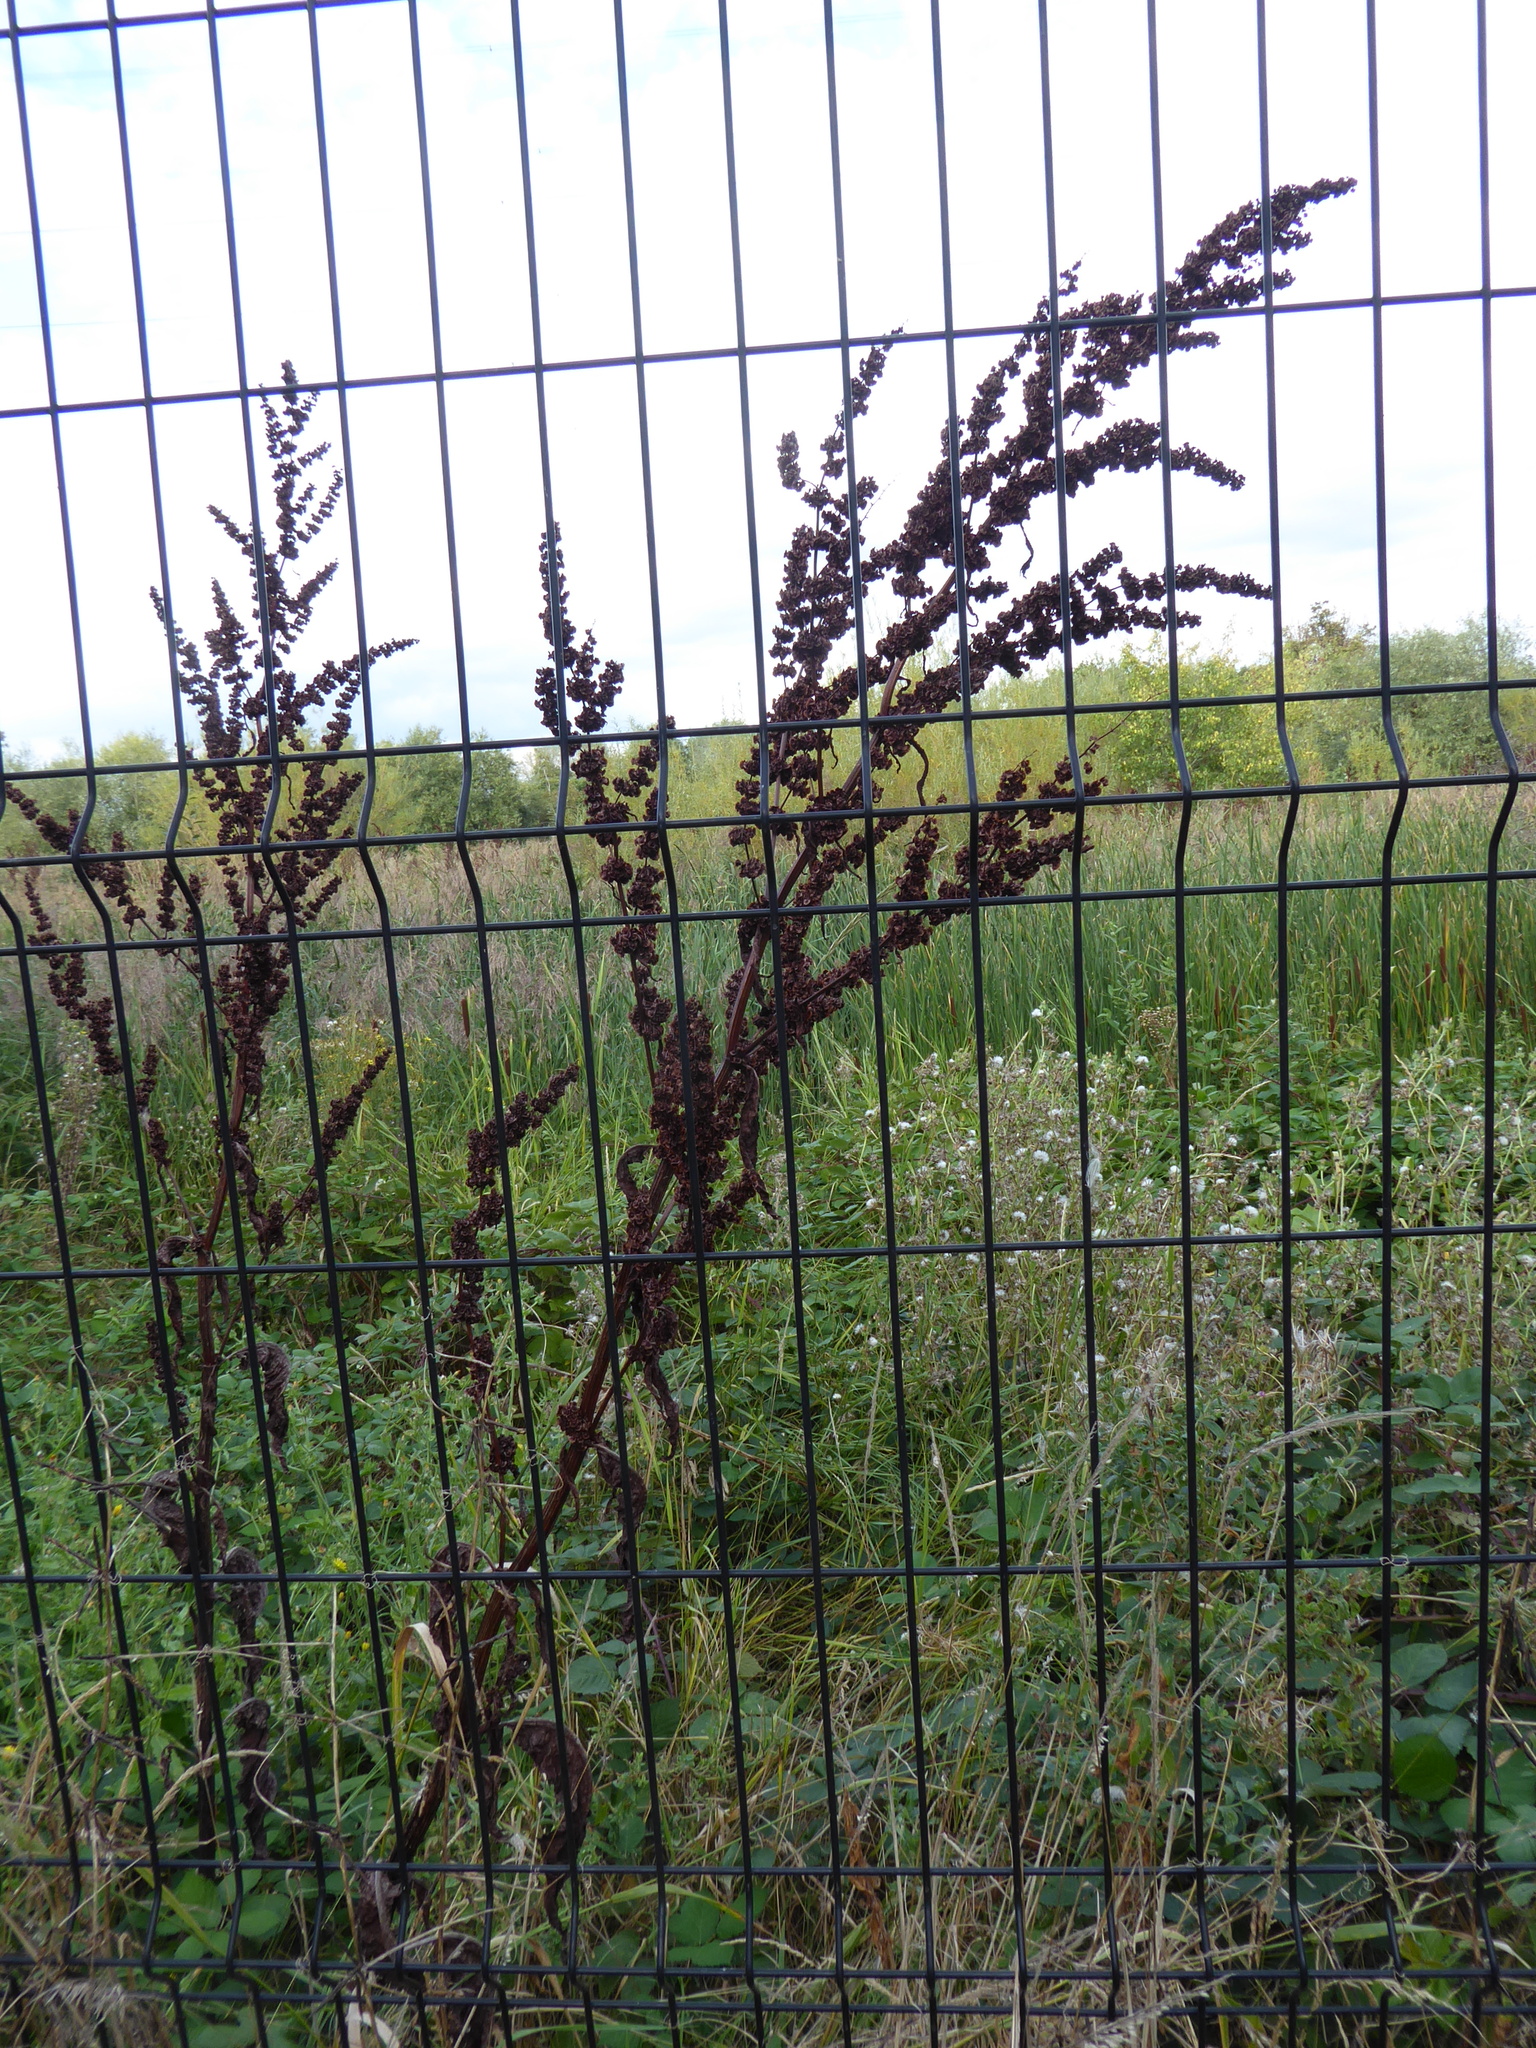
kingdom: Plantae
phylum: Tracheophyta
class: Magnoliopsida
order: Caryophyllales
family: Polygonaceae
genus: Rumex
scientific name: Rumex cristatus
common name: Greek dock
